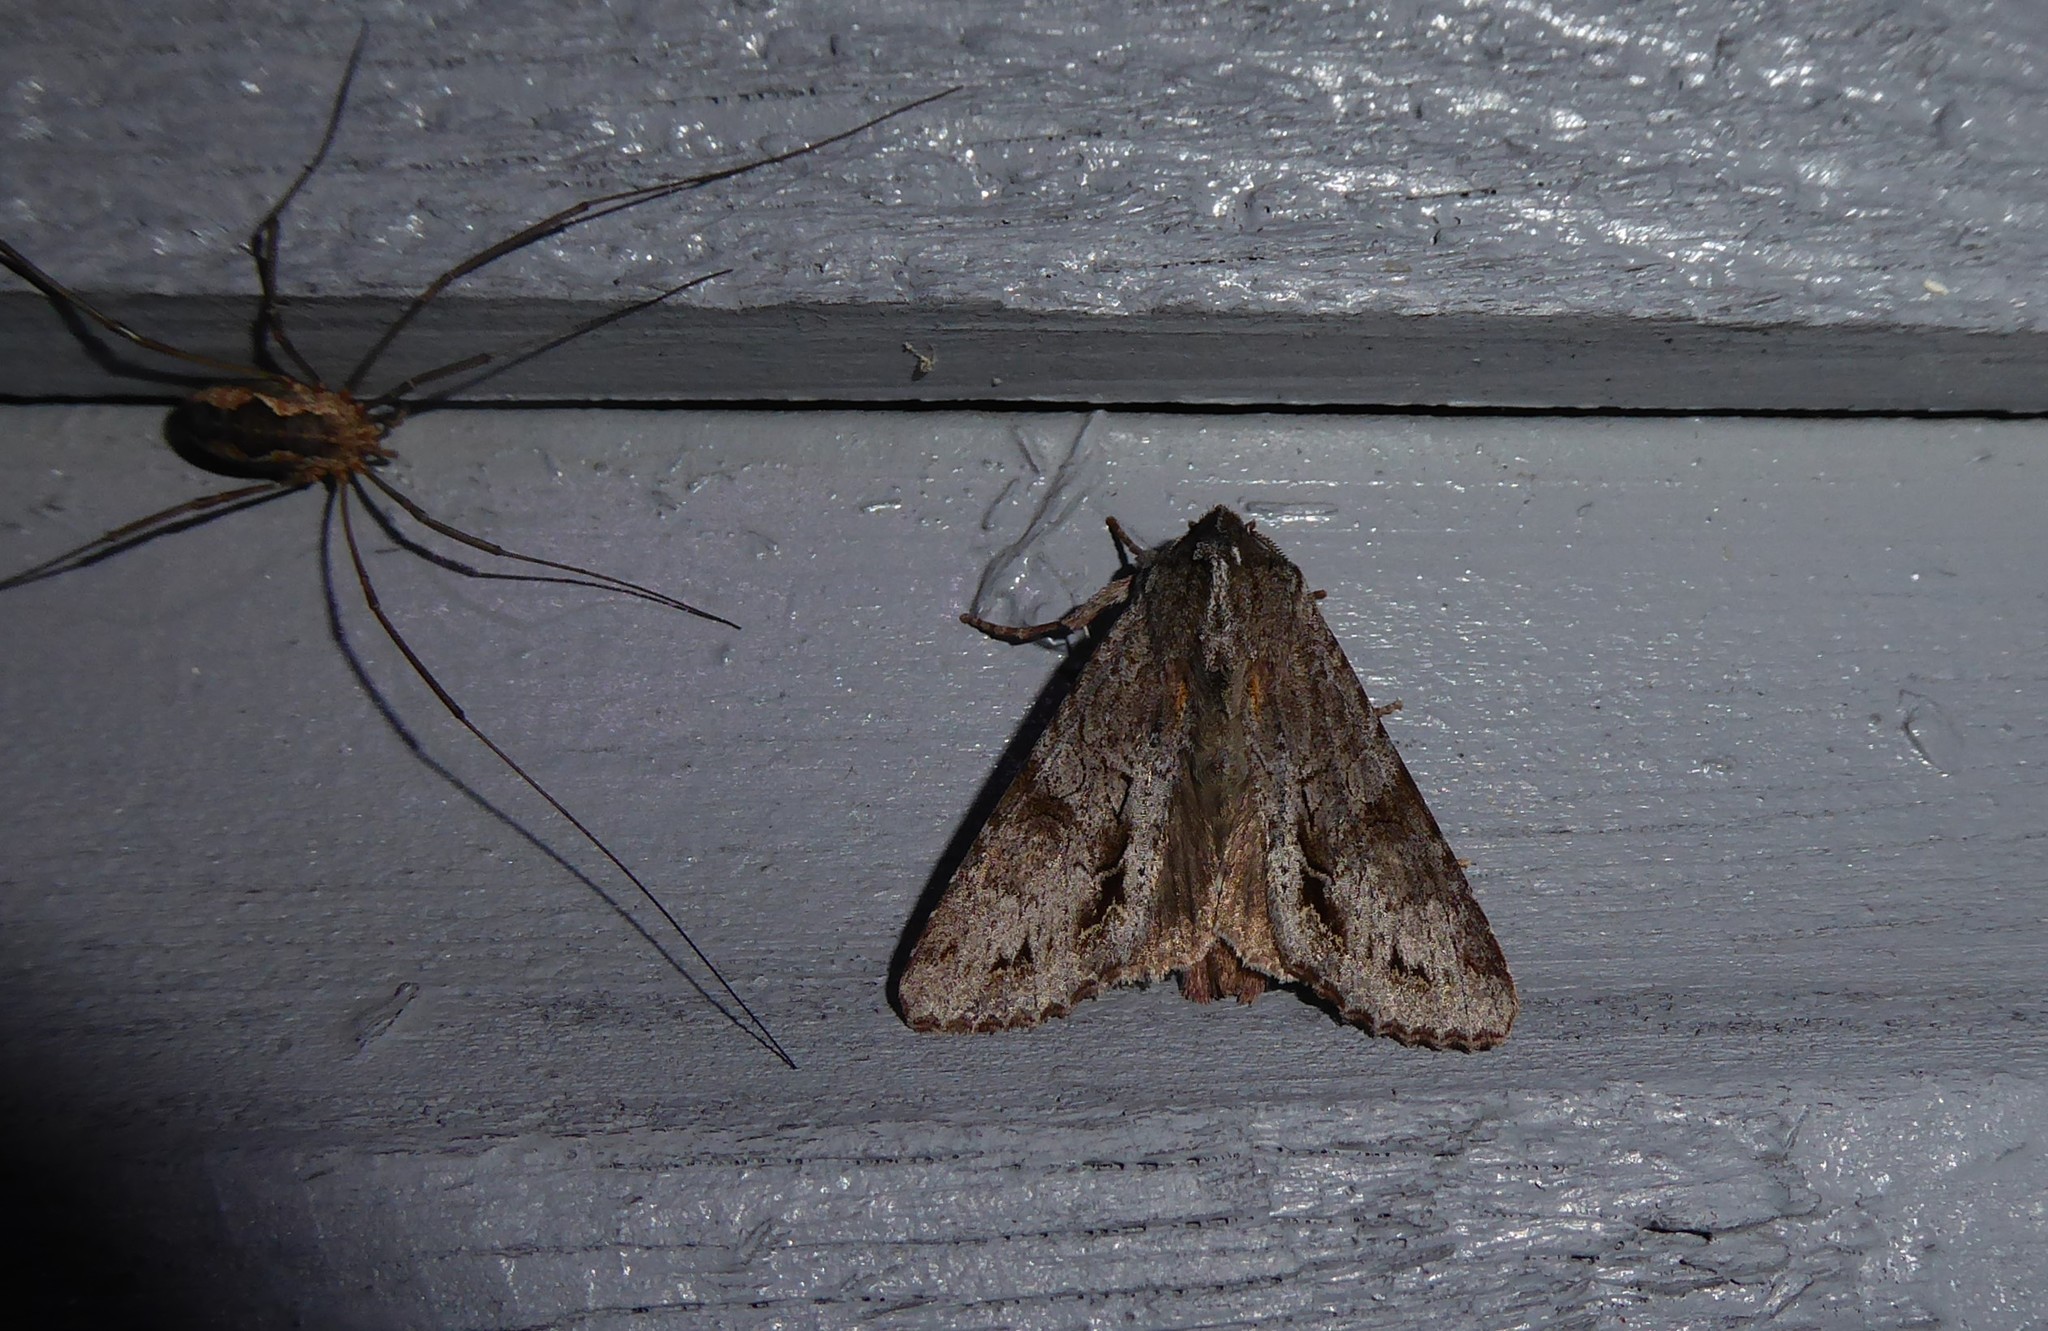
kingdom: Animalia
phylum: Arthropoda
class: Insecta
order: Lepidoptera
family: Noctuidae
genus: Ichneutica
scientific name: Ichneutica
